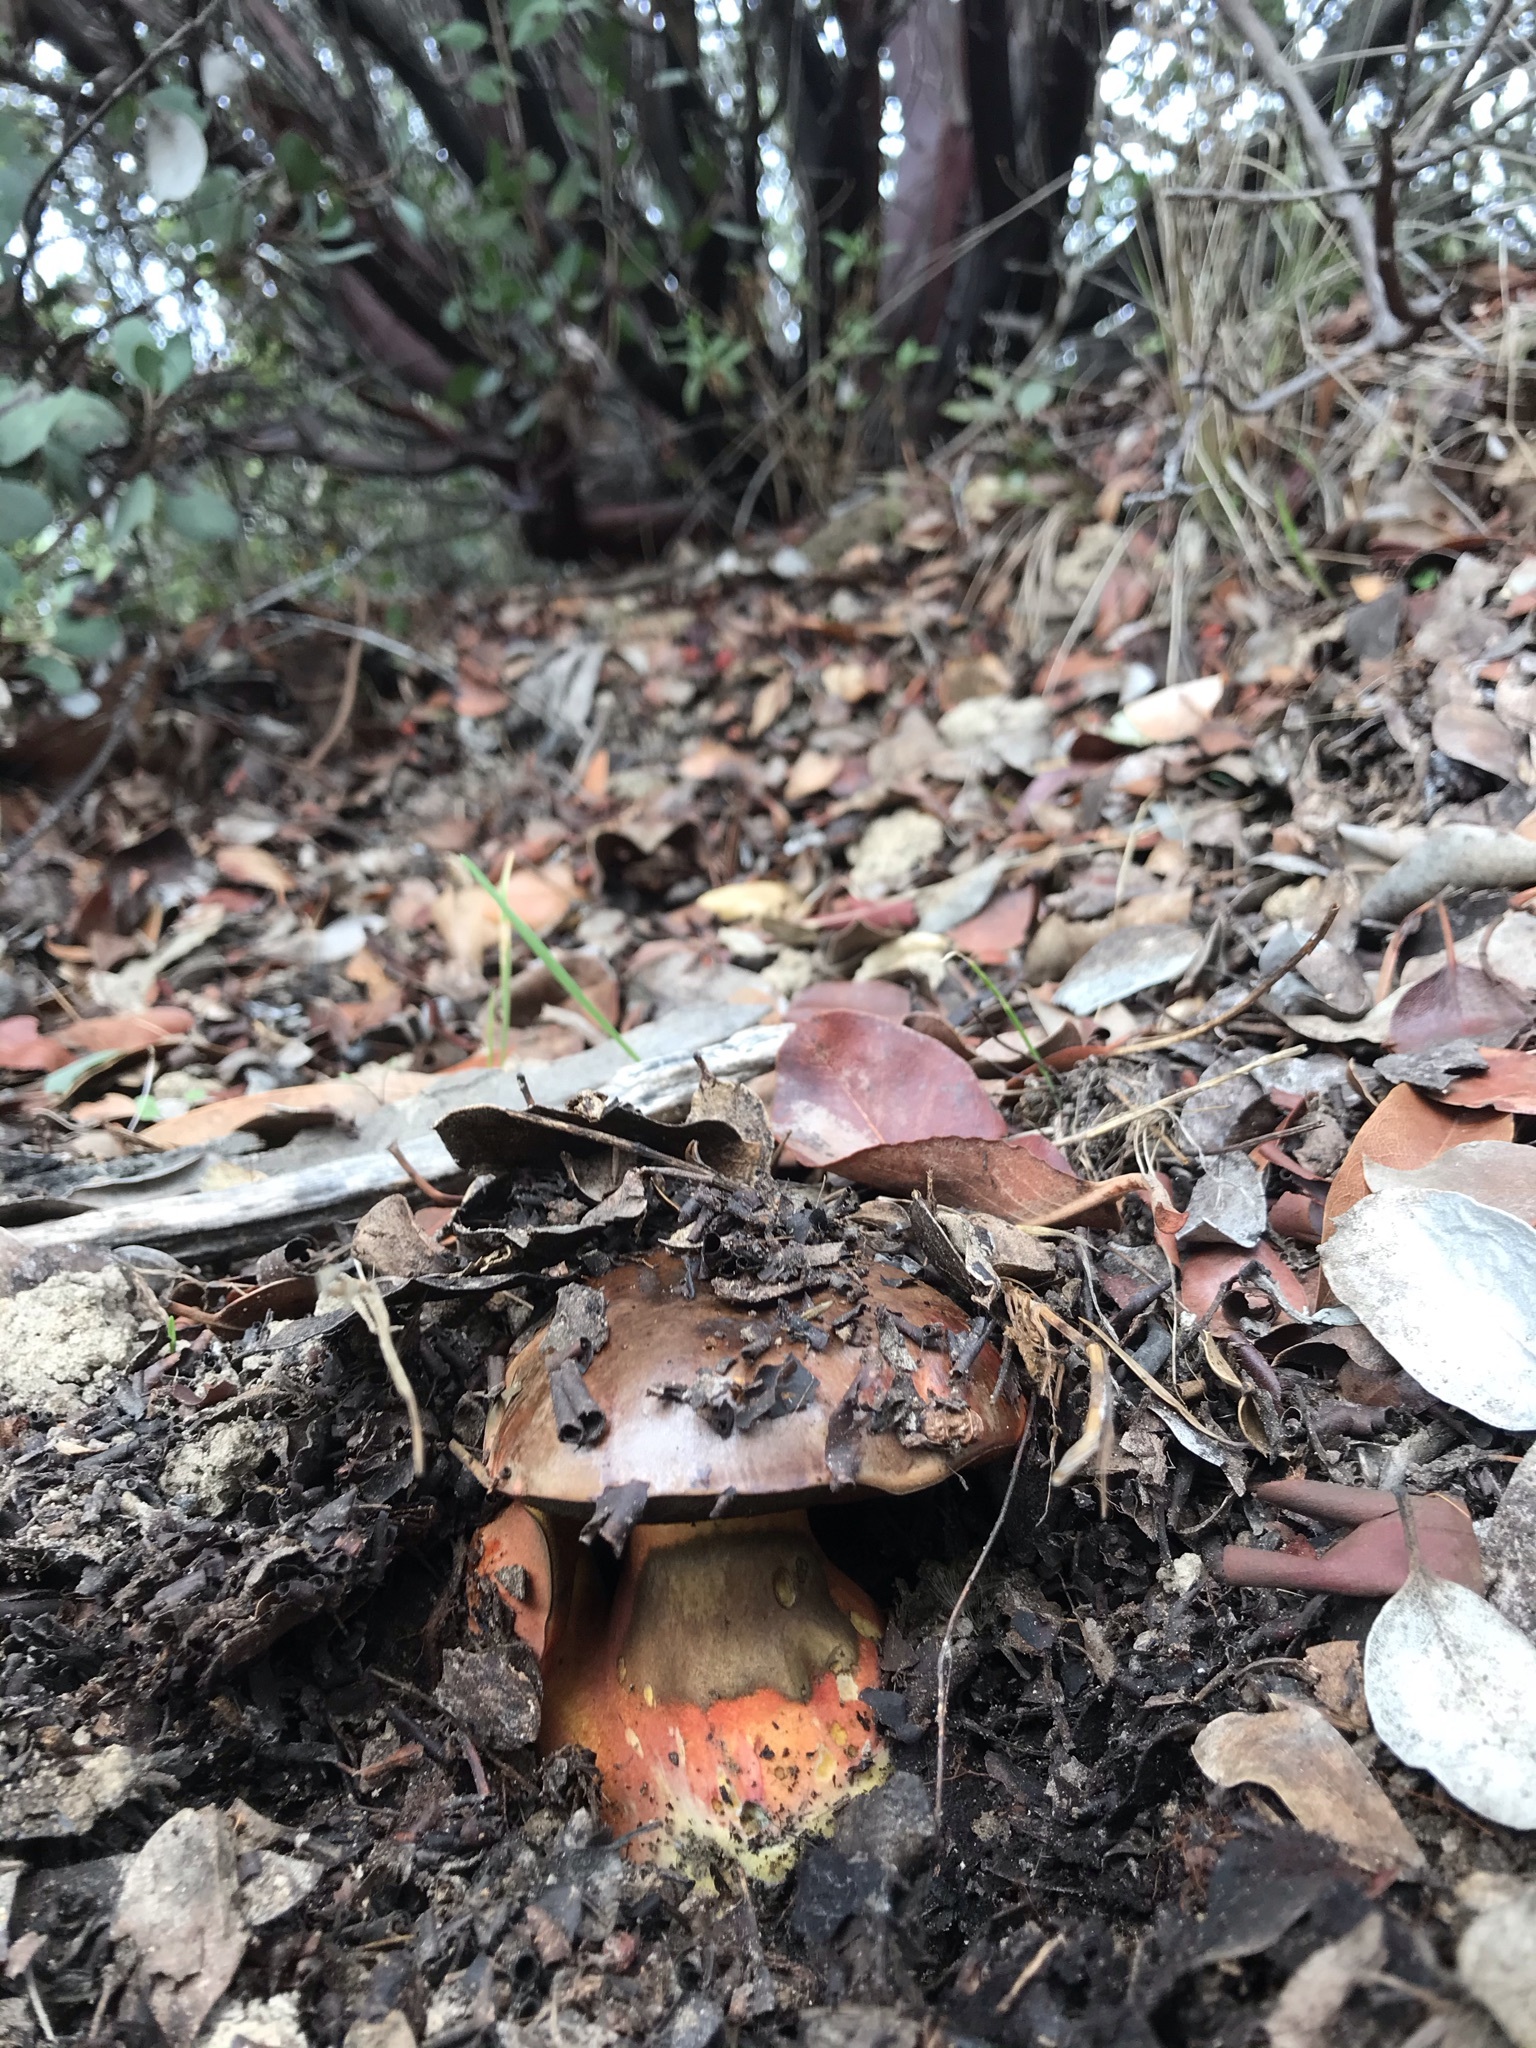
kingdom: Fungi
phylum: Basidiomycota
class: Agaricomycetes
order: Boletales
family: Boletaceae
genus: Suillellus
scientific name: Suillellus amygdalinus
